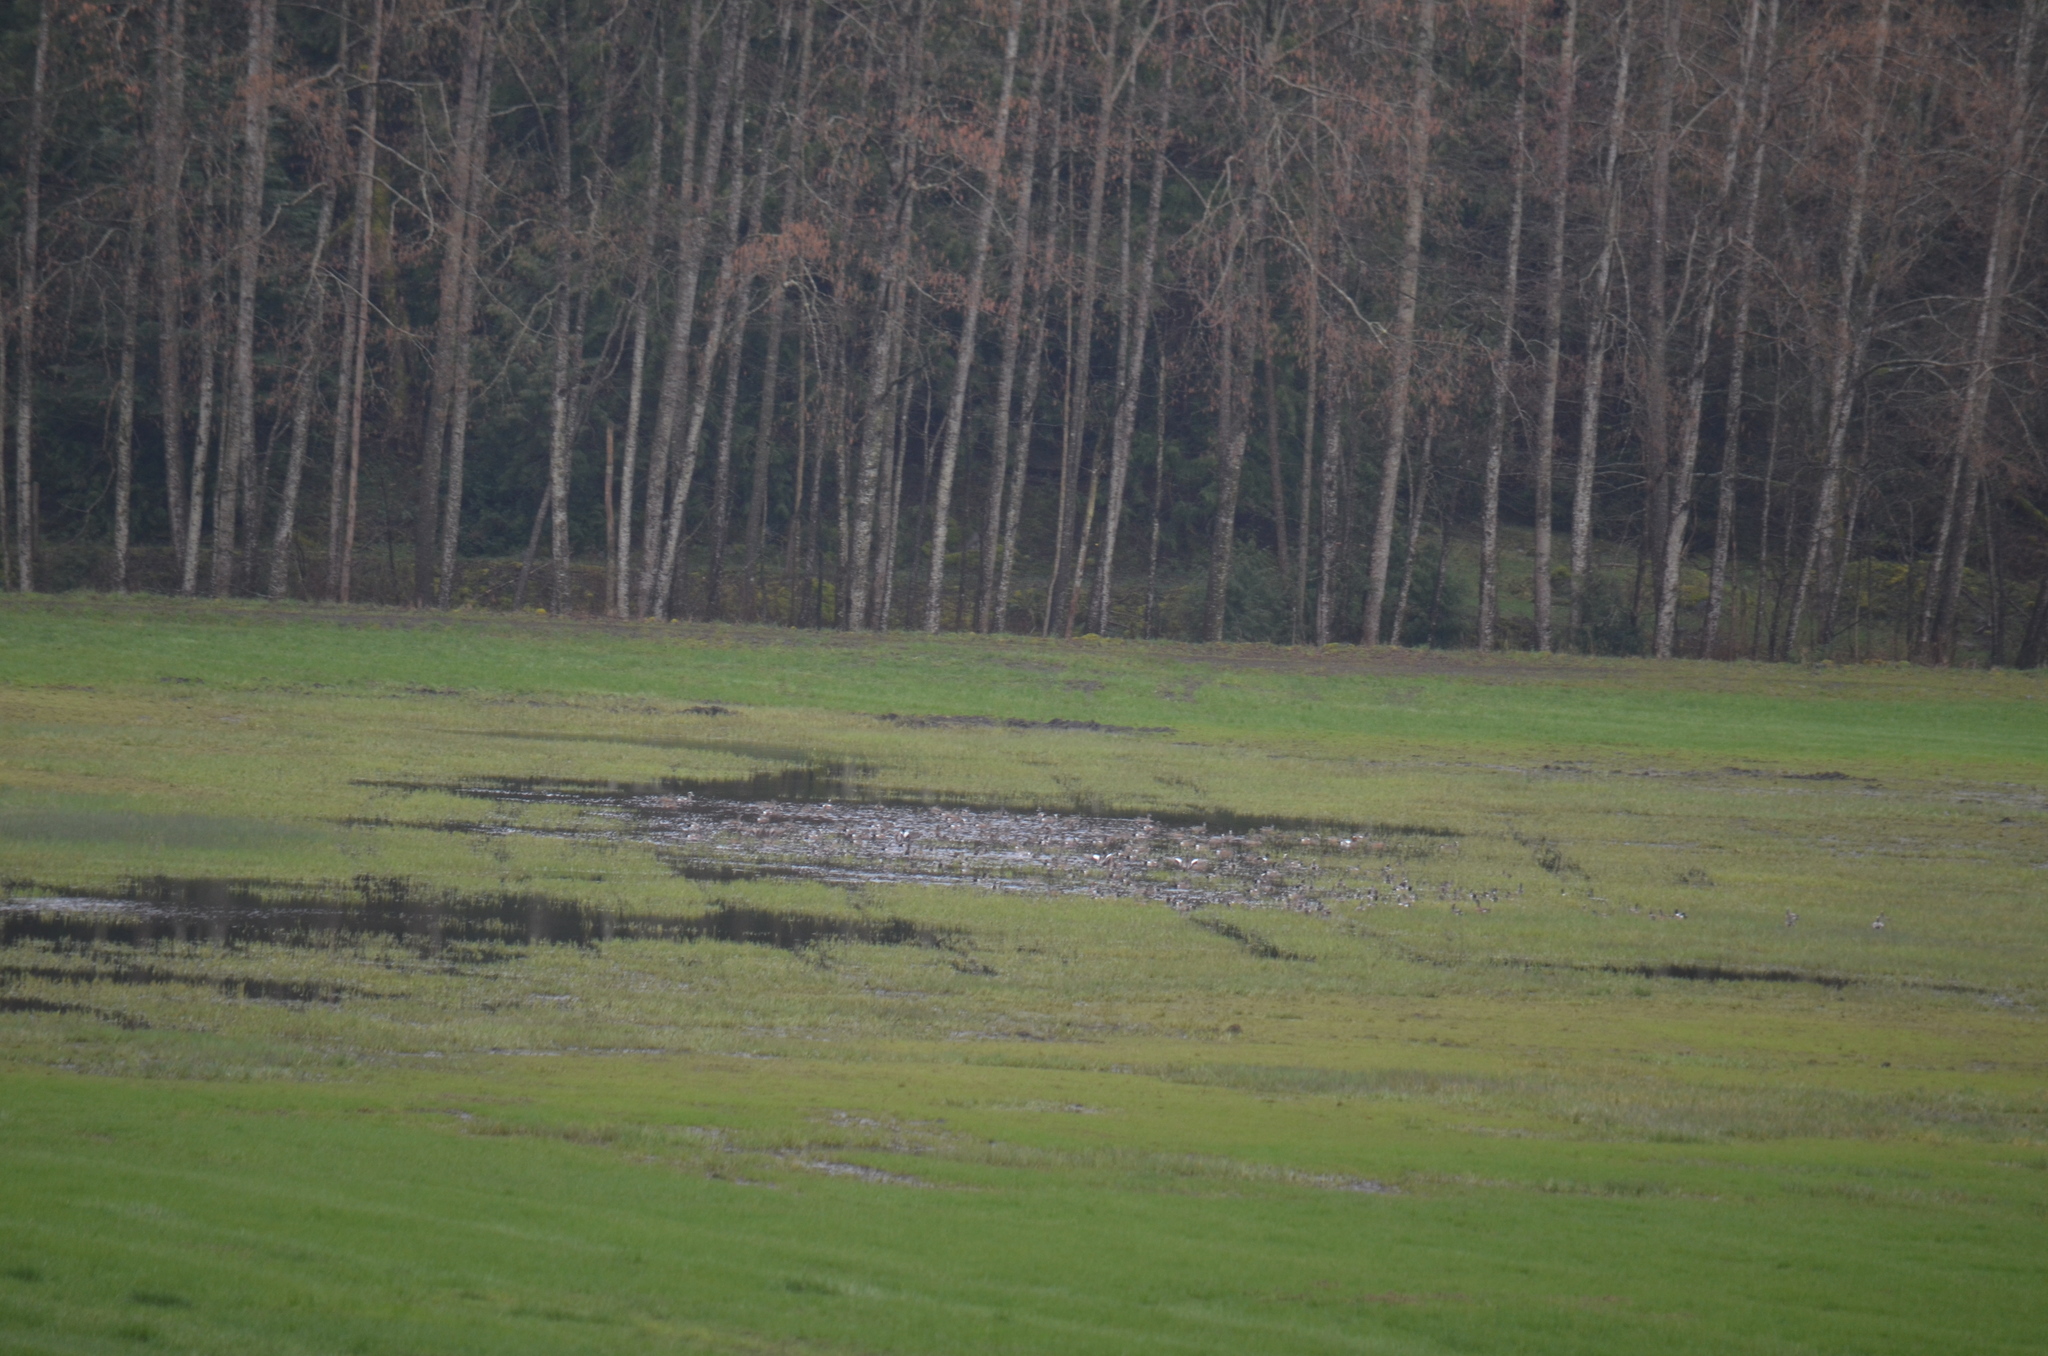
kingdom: Animalia
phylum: Chordata
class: Aves
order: Anseriformes
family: Anatidae
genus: Mareca
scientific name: Mareca americana
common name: American wigeon
